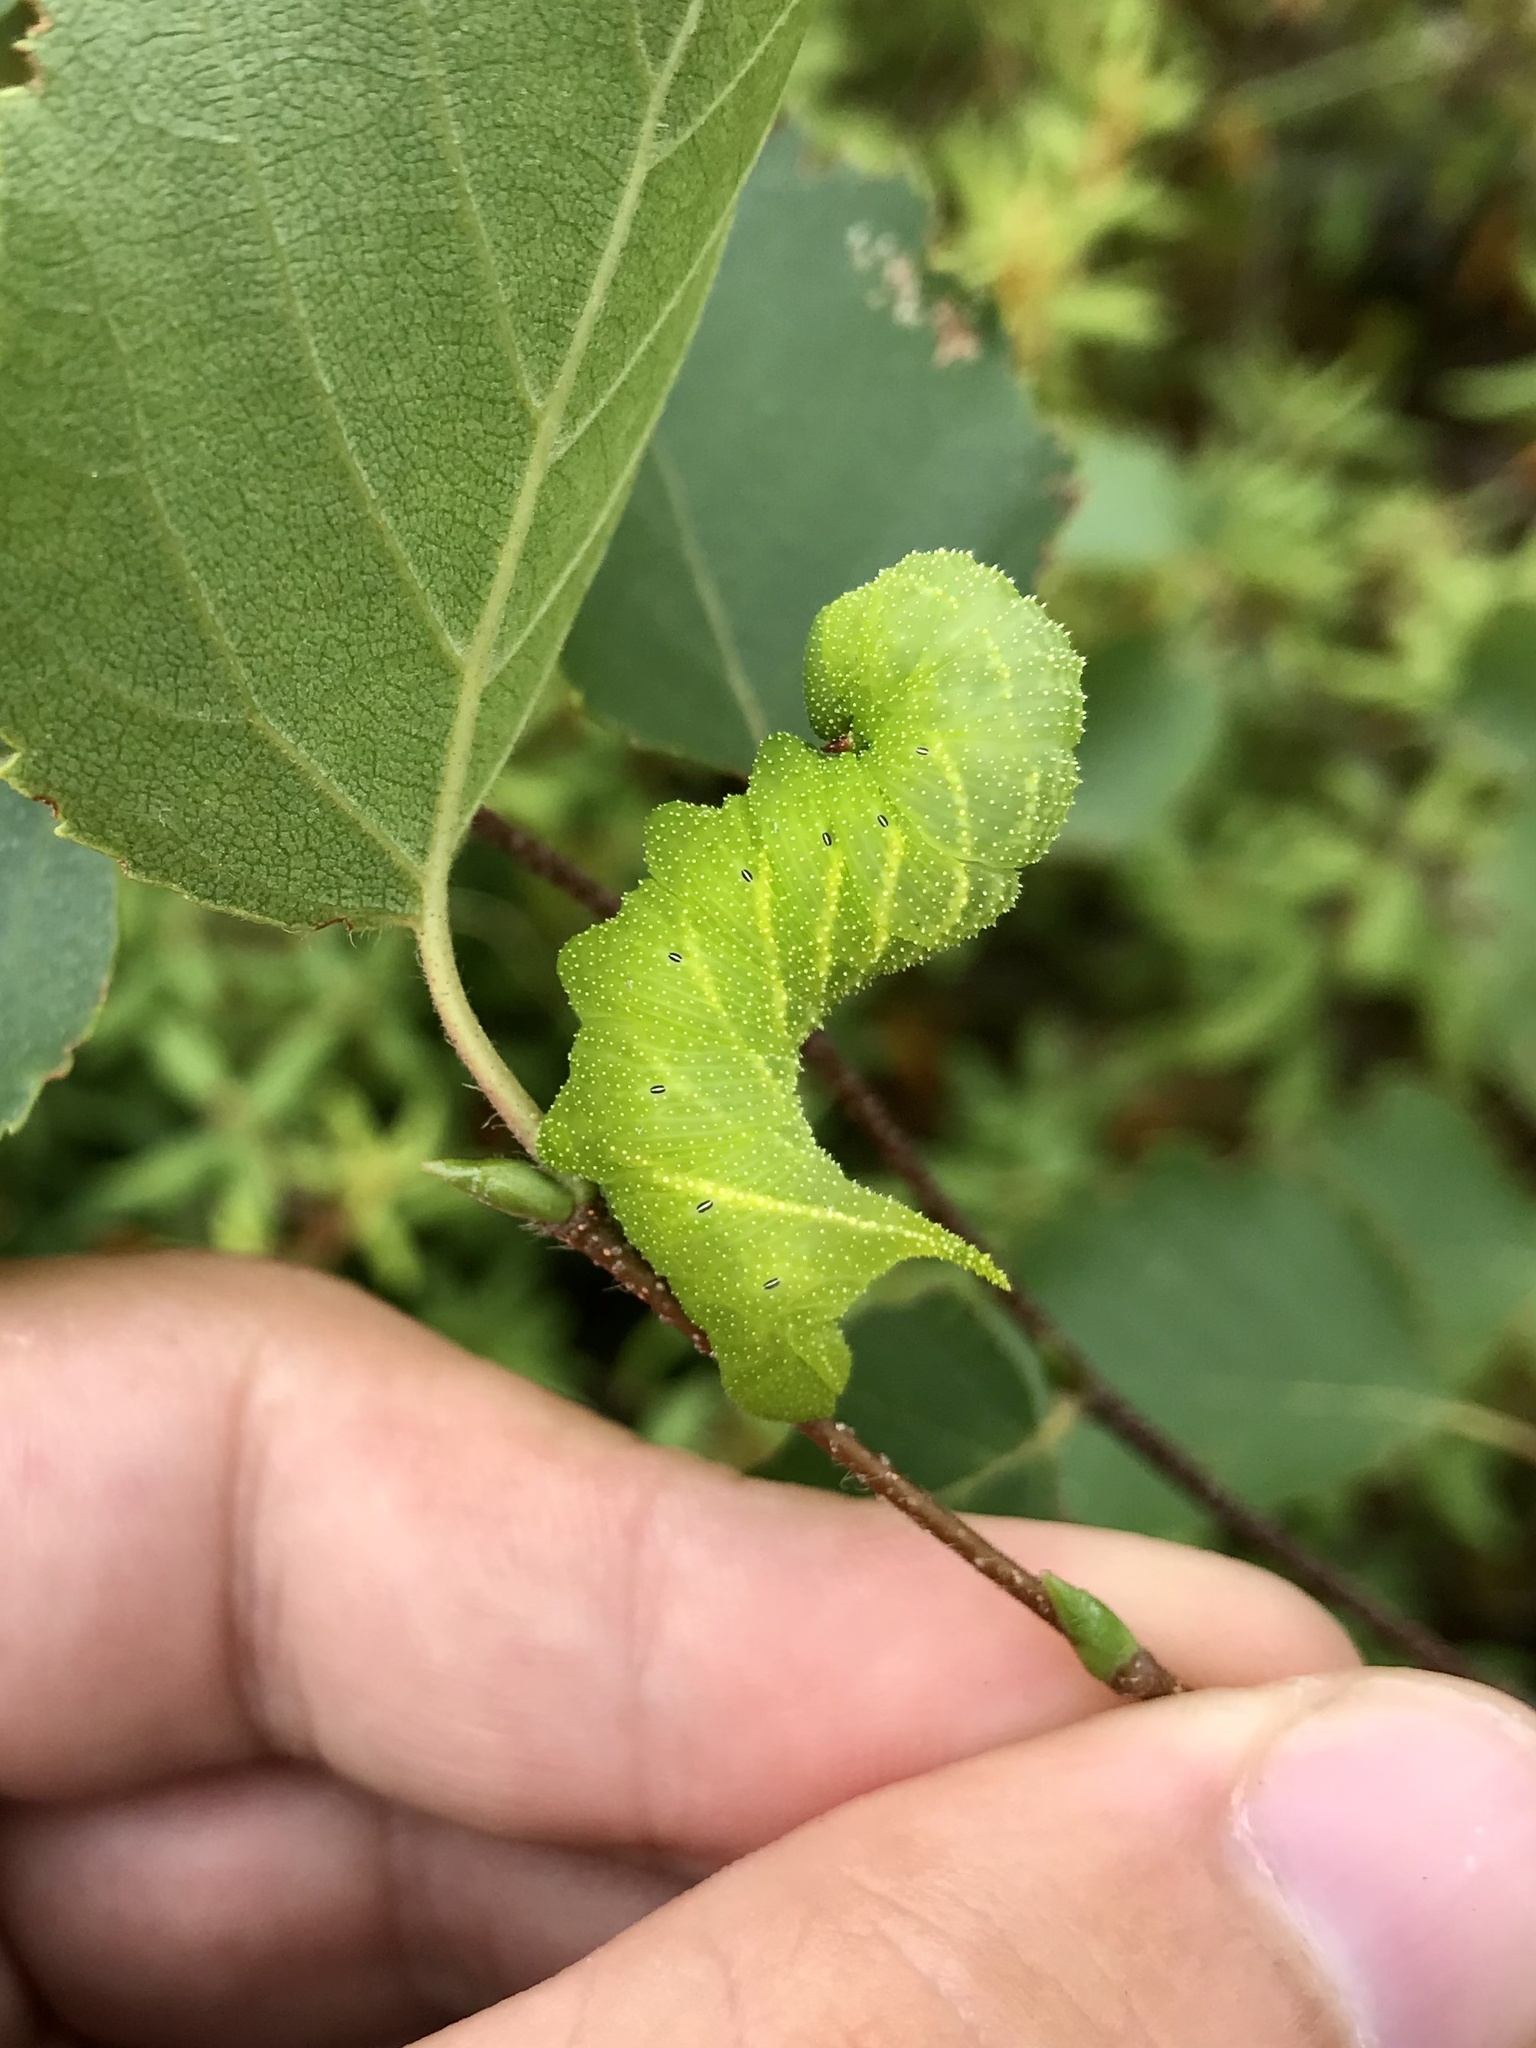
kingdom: Animalia
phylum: Arthropoda
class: Insecta
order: Lepidoptera
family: Sphingidae
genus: Paonias
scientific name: Paonias excaecata
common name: Blind-eyed sphinx
